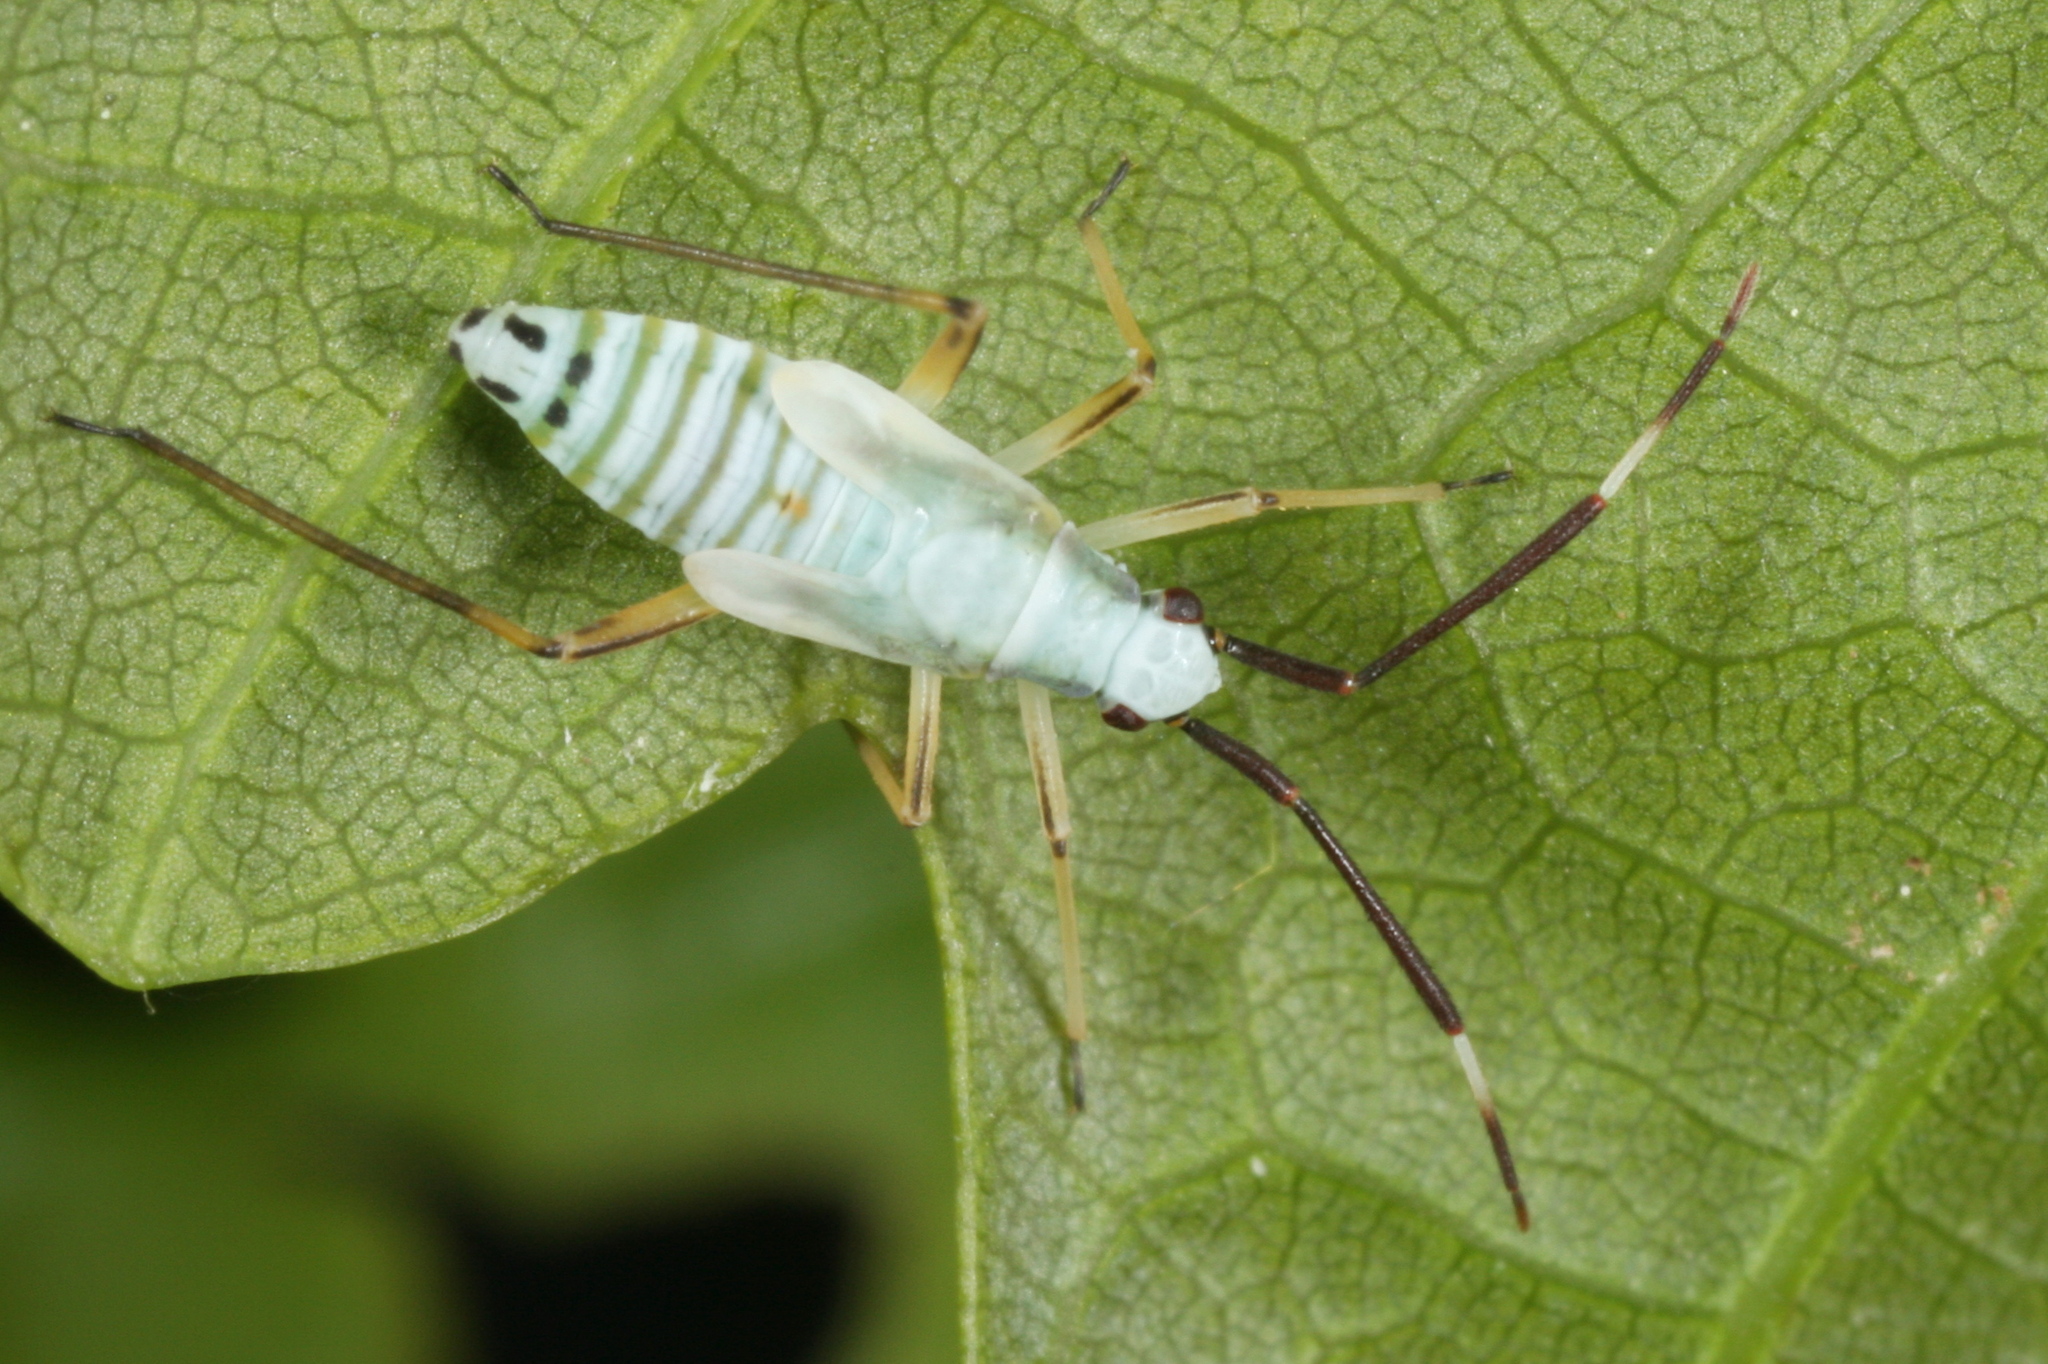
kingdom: Animalia
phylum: Arthropoda
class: Insecta
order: Hemiptera
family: Miridae
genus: Cyllecoris
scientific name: Cyllecoris histrionius
